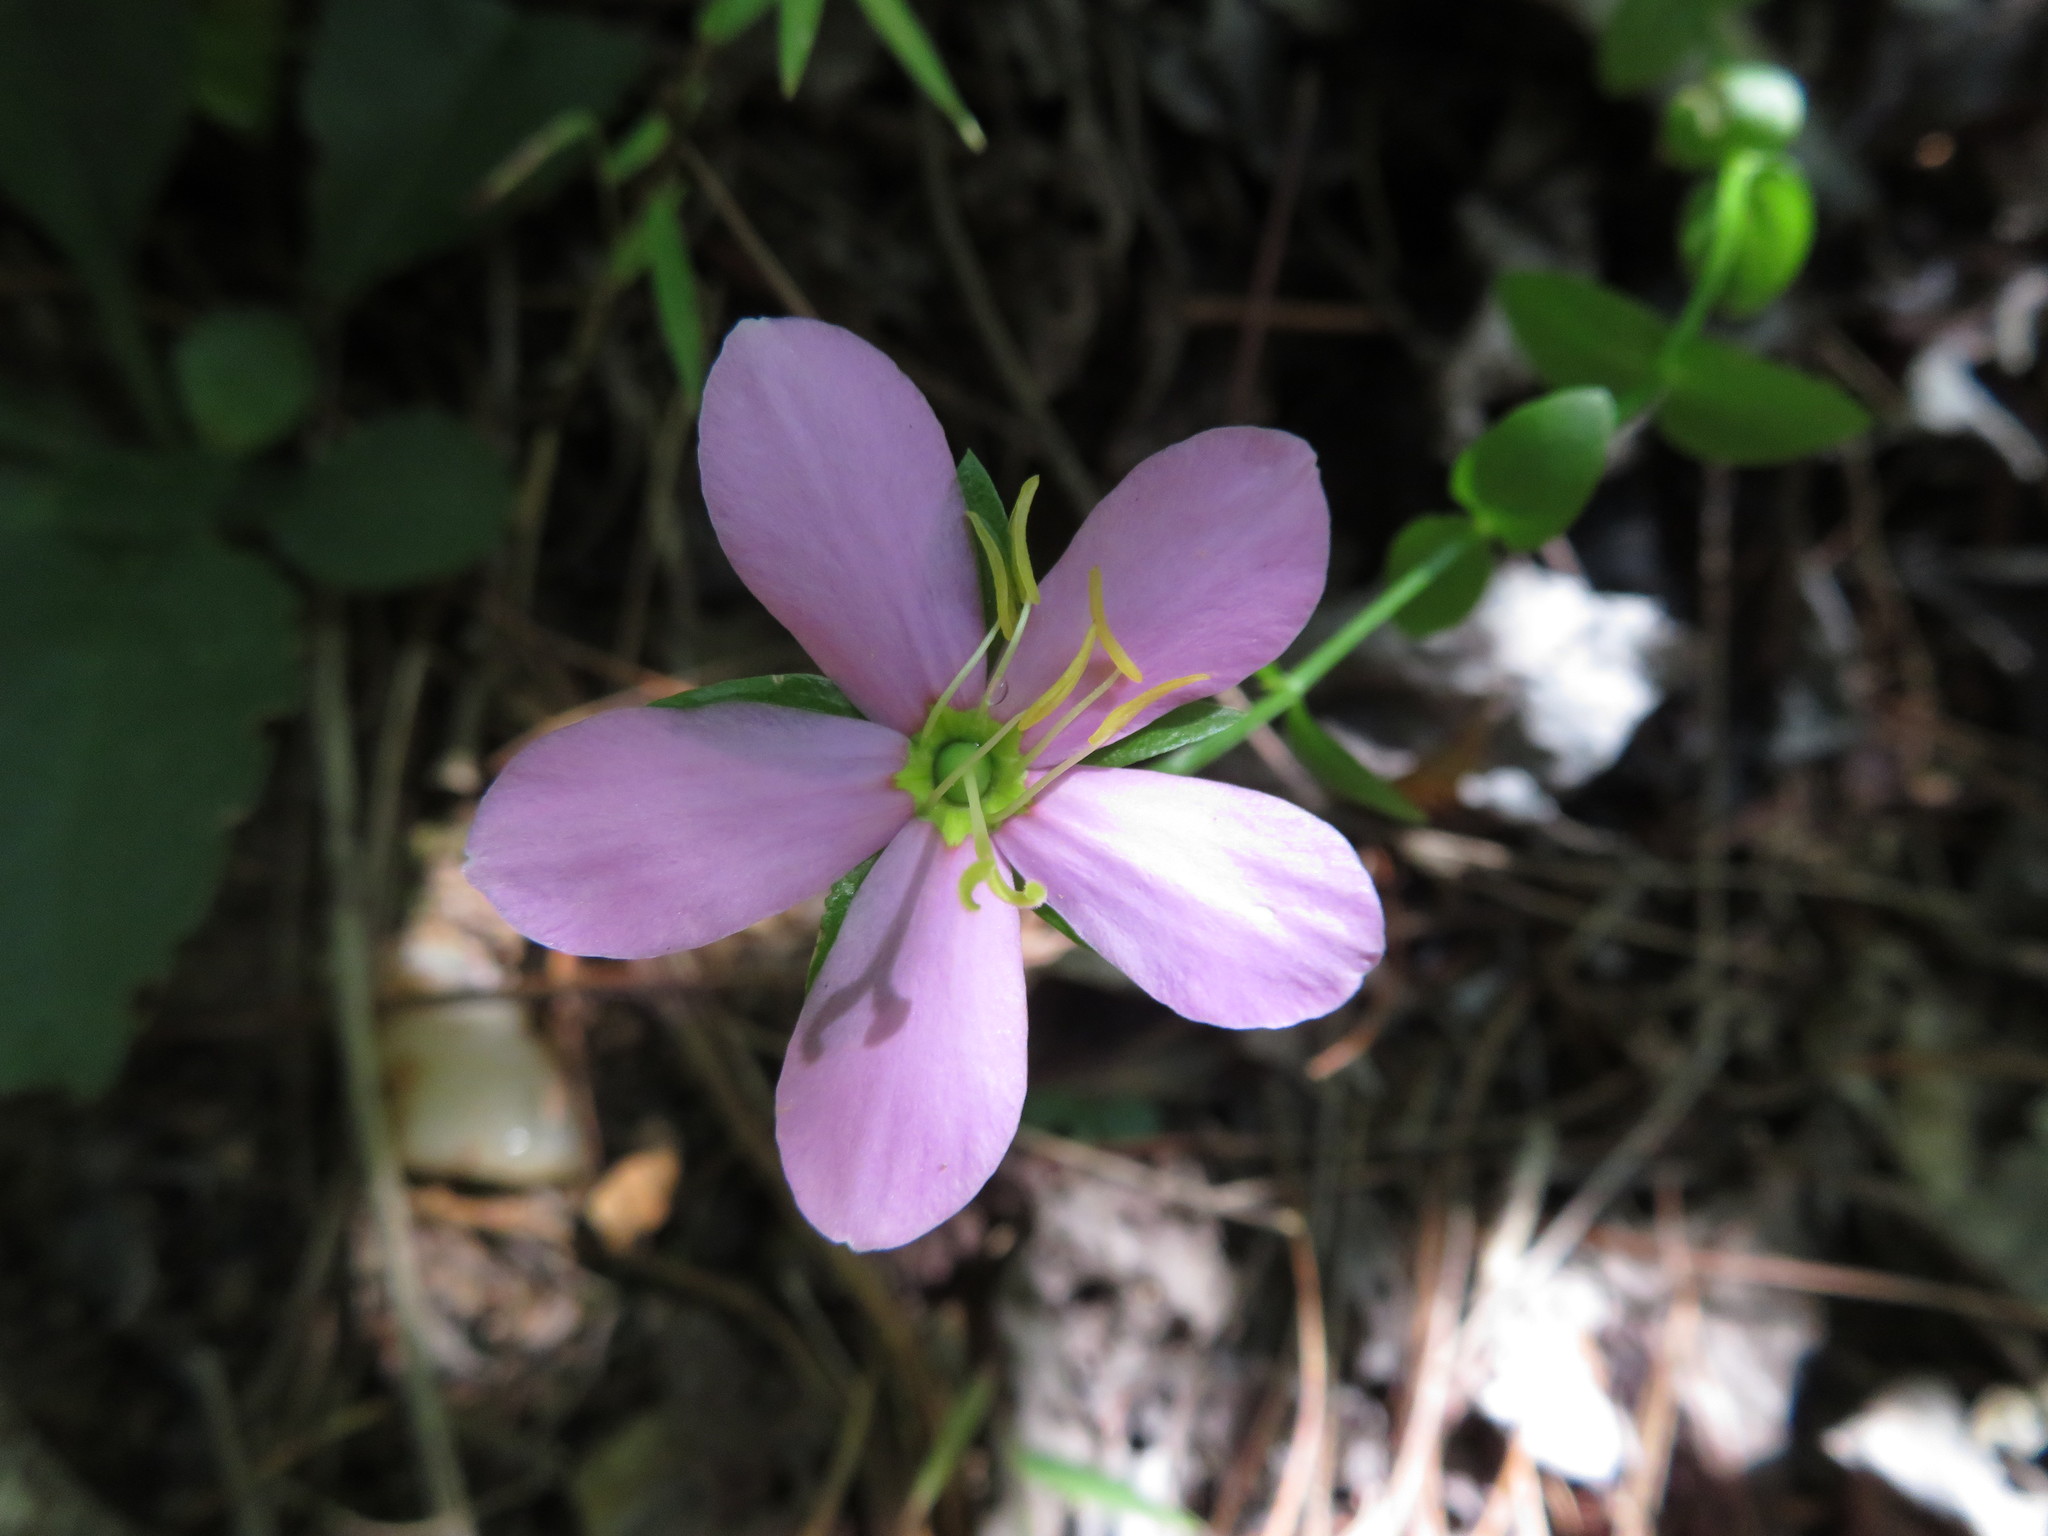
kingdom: Plantae
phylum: Tracheophyta
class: Magnoliopsida
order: Gentianales
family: Gentianaceae
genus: Sabatia
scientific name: Sabatia angularis
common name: Rose-pink
